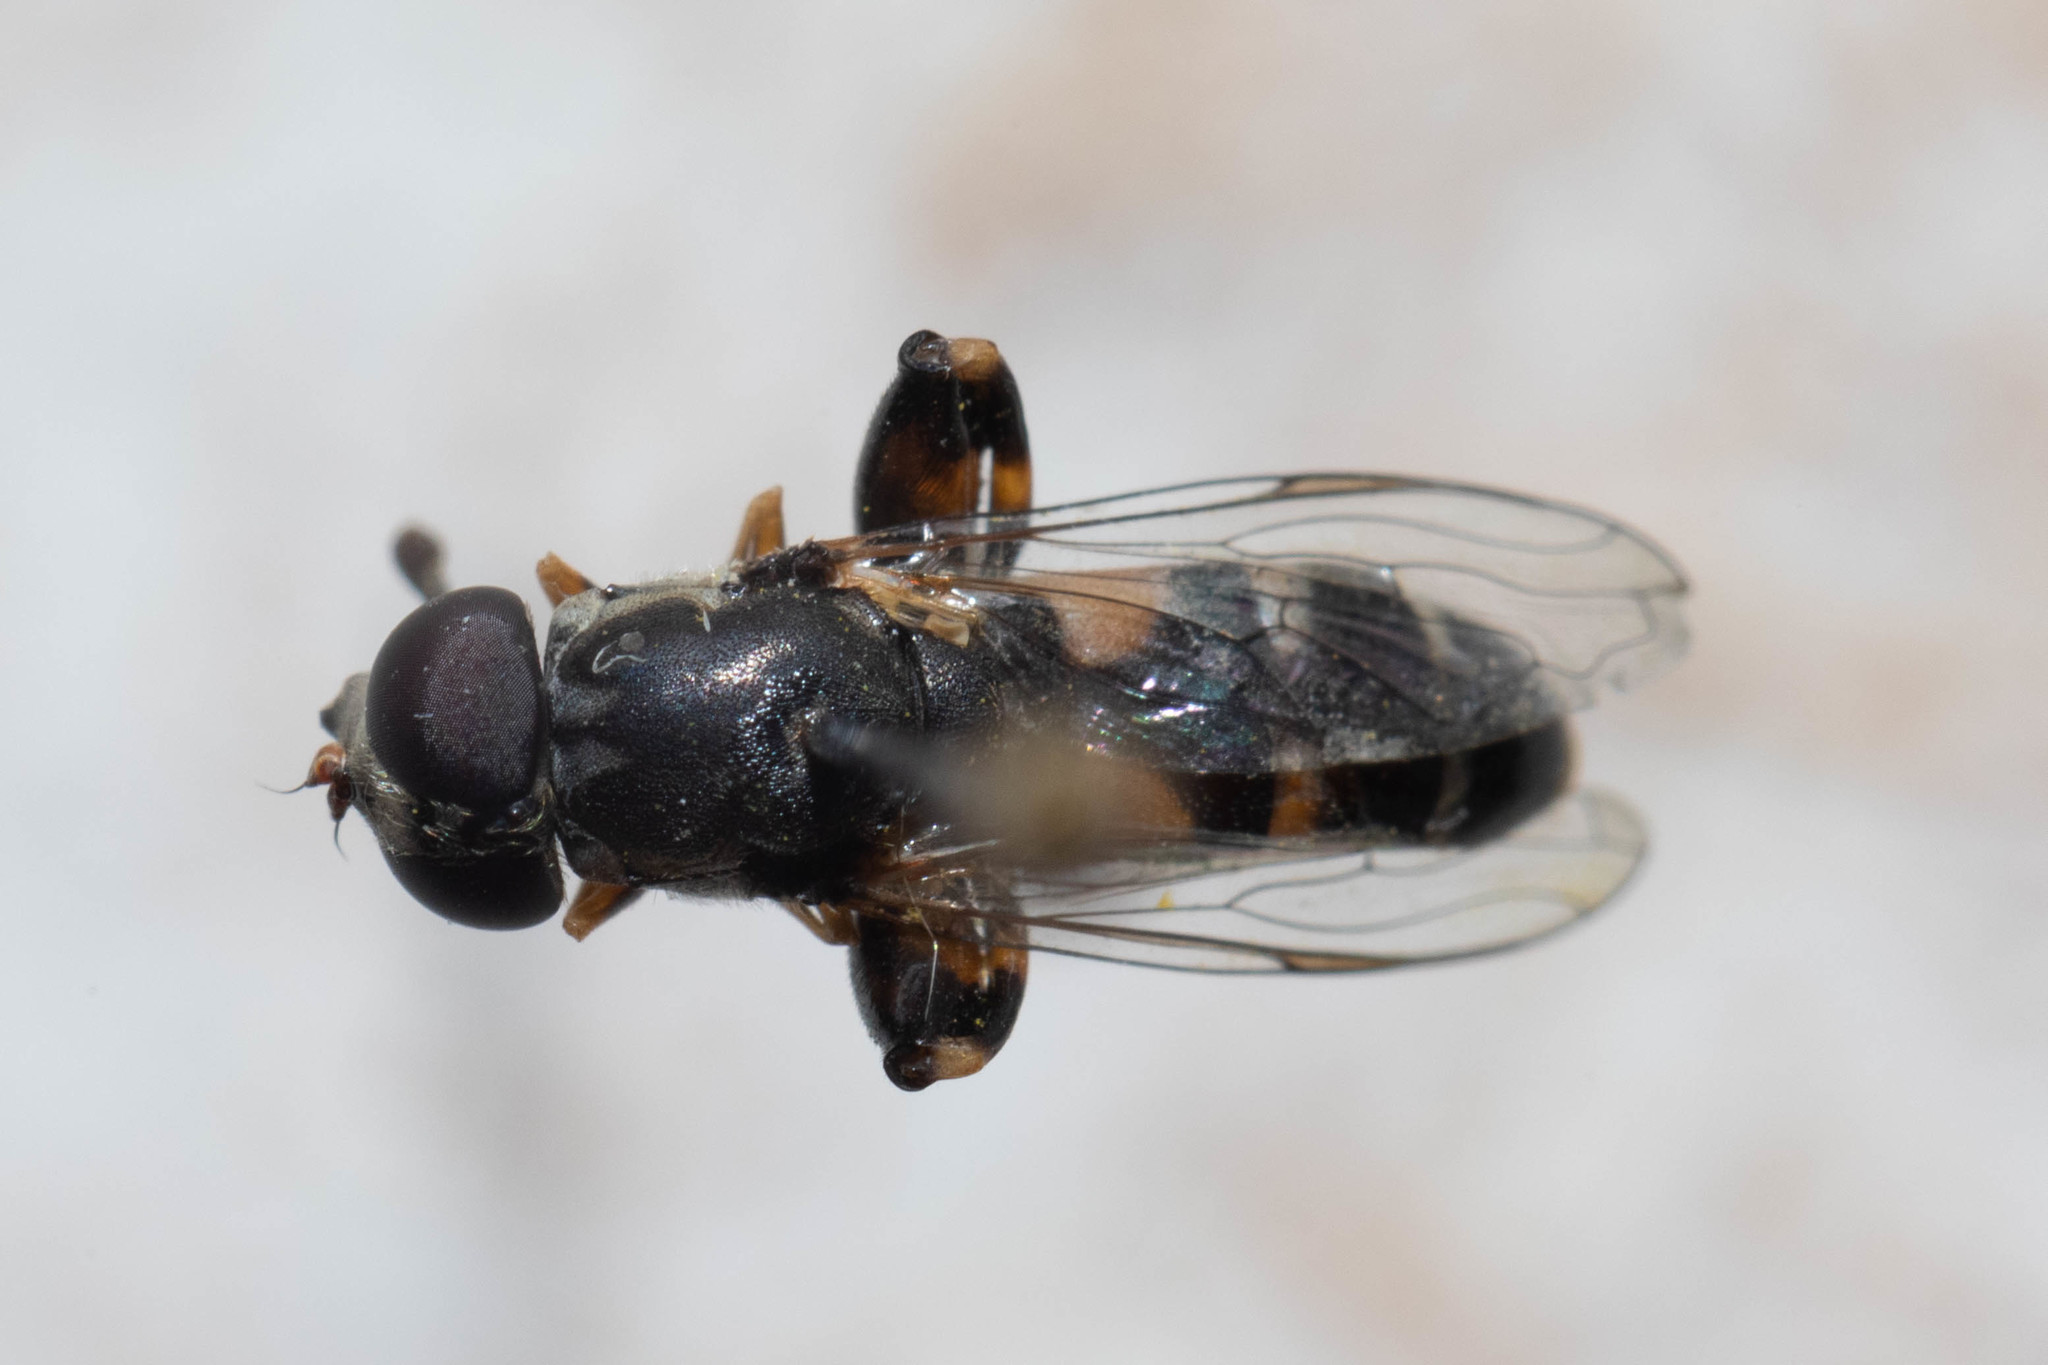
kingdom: Animalia
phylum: Arthropoda
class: Insecta
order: Diptera
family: Syrphidae
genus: Syritta
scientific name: Syritta pipiens
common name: Hover fly
